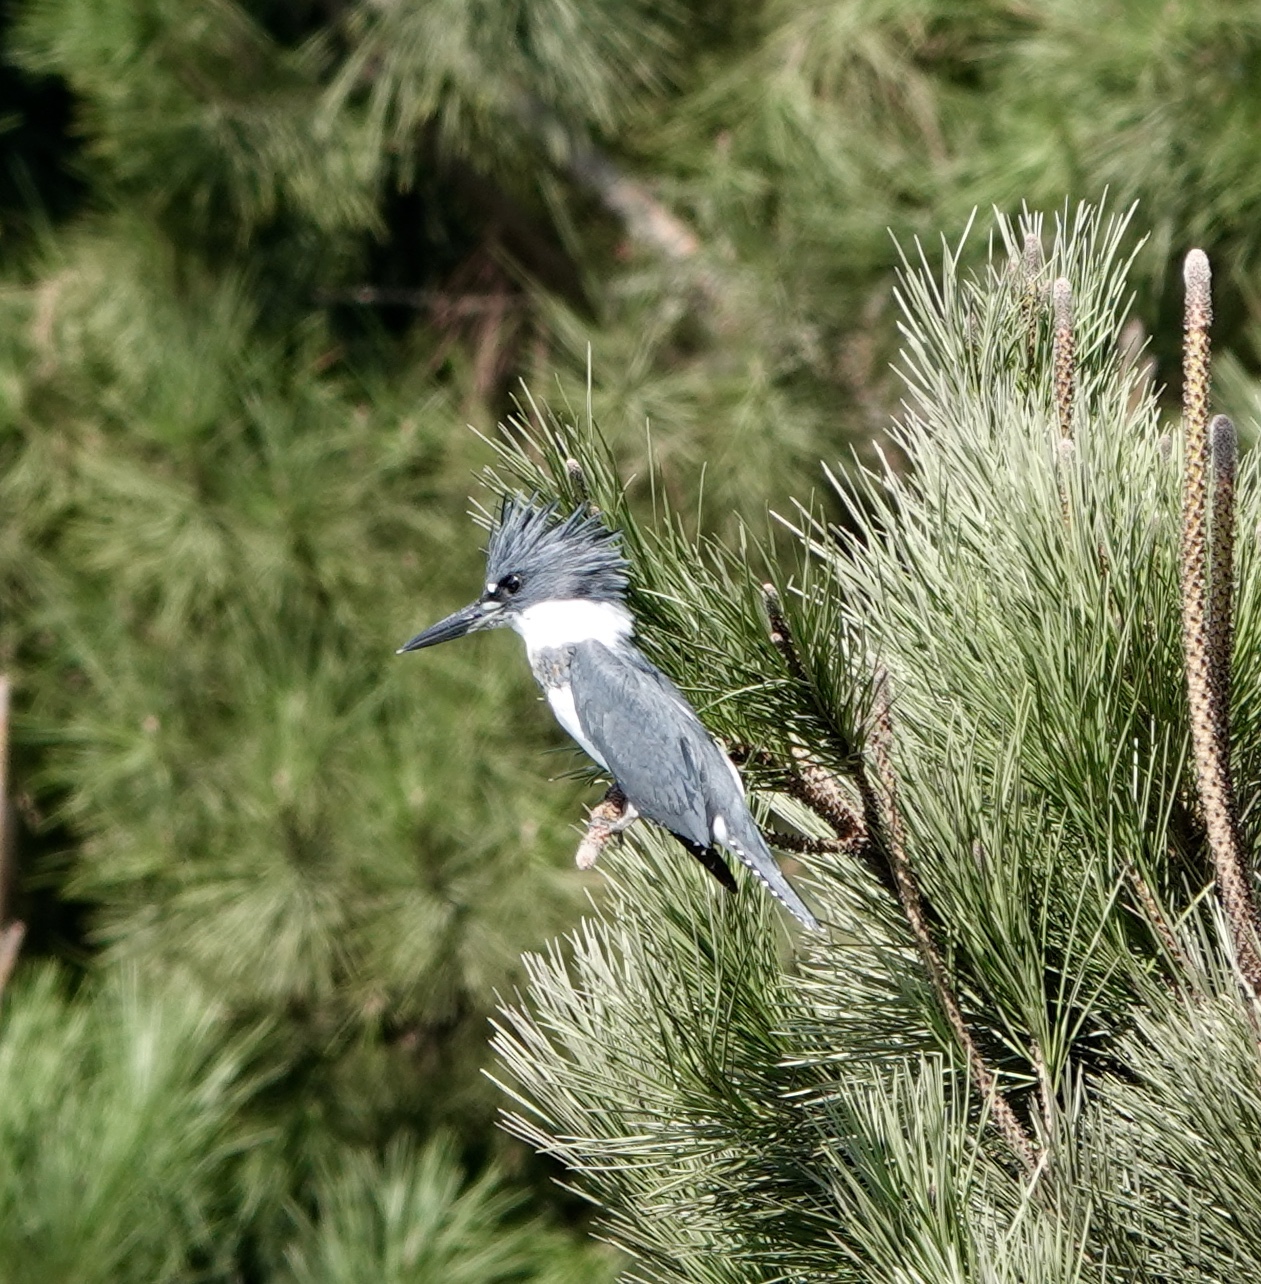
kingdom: Animalia
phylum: Chordata
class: Aves
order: Coraciiformes
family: Alcedinidae
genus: Megaceryle
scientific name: Megaceryle alcyon
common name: Belted kingfisher
